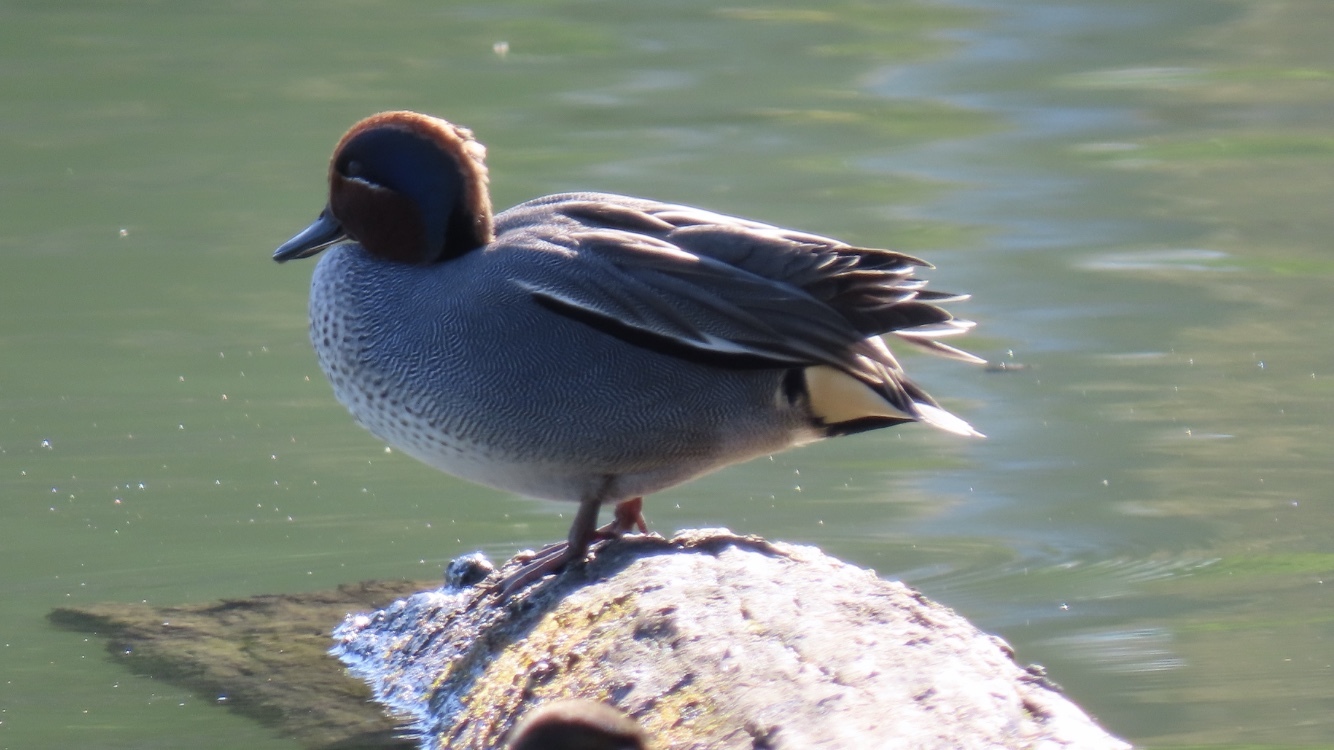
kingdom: Animalia
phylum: Chordata
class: Aves
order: Anseriformes
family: Anatidae
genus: Anas
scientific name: Anas crecca
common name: Eurasian teal
